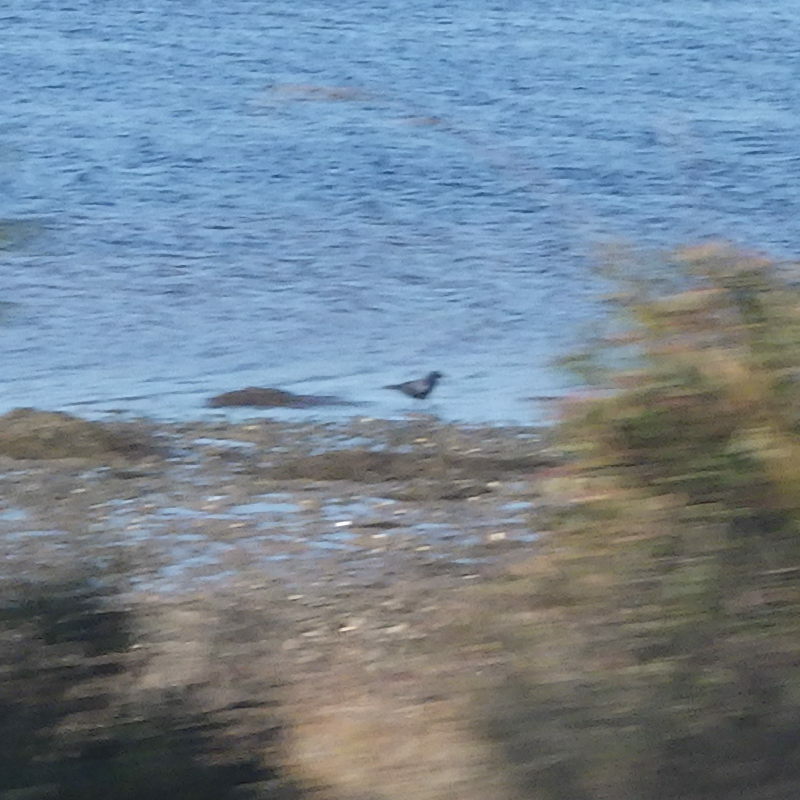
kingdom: Animalia
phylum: Chordata
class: Aves
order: Passeriformes
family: Corvidae
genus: Corvus
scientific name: Corvus brachyrhynchos
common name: American crow
